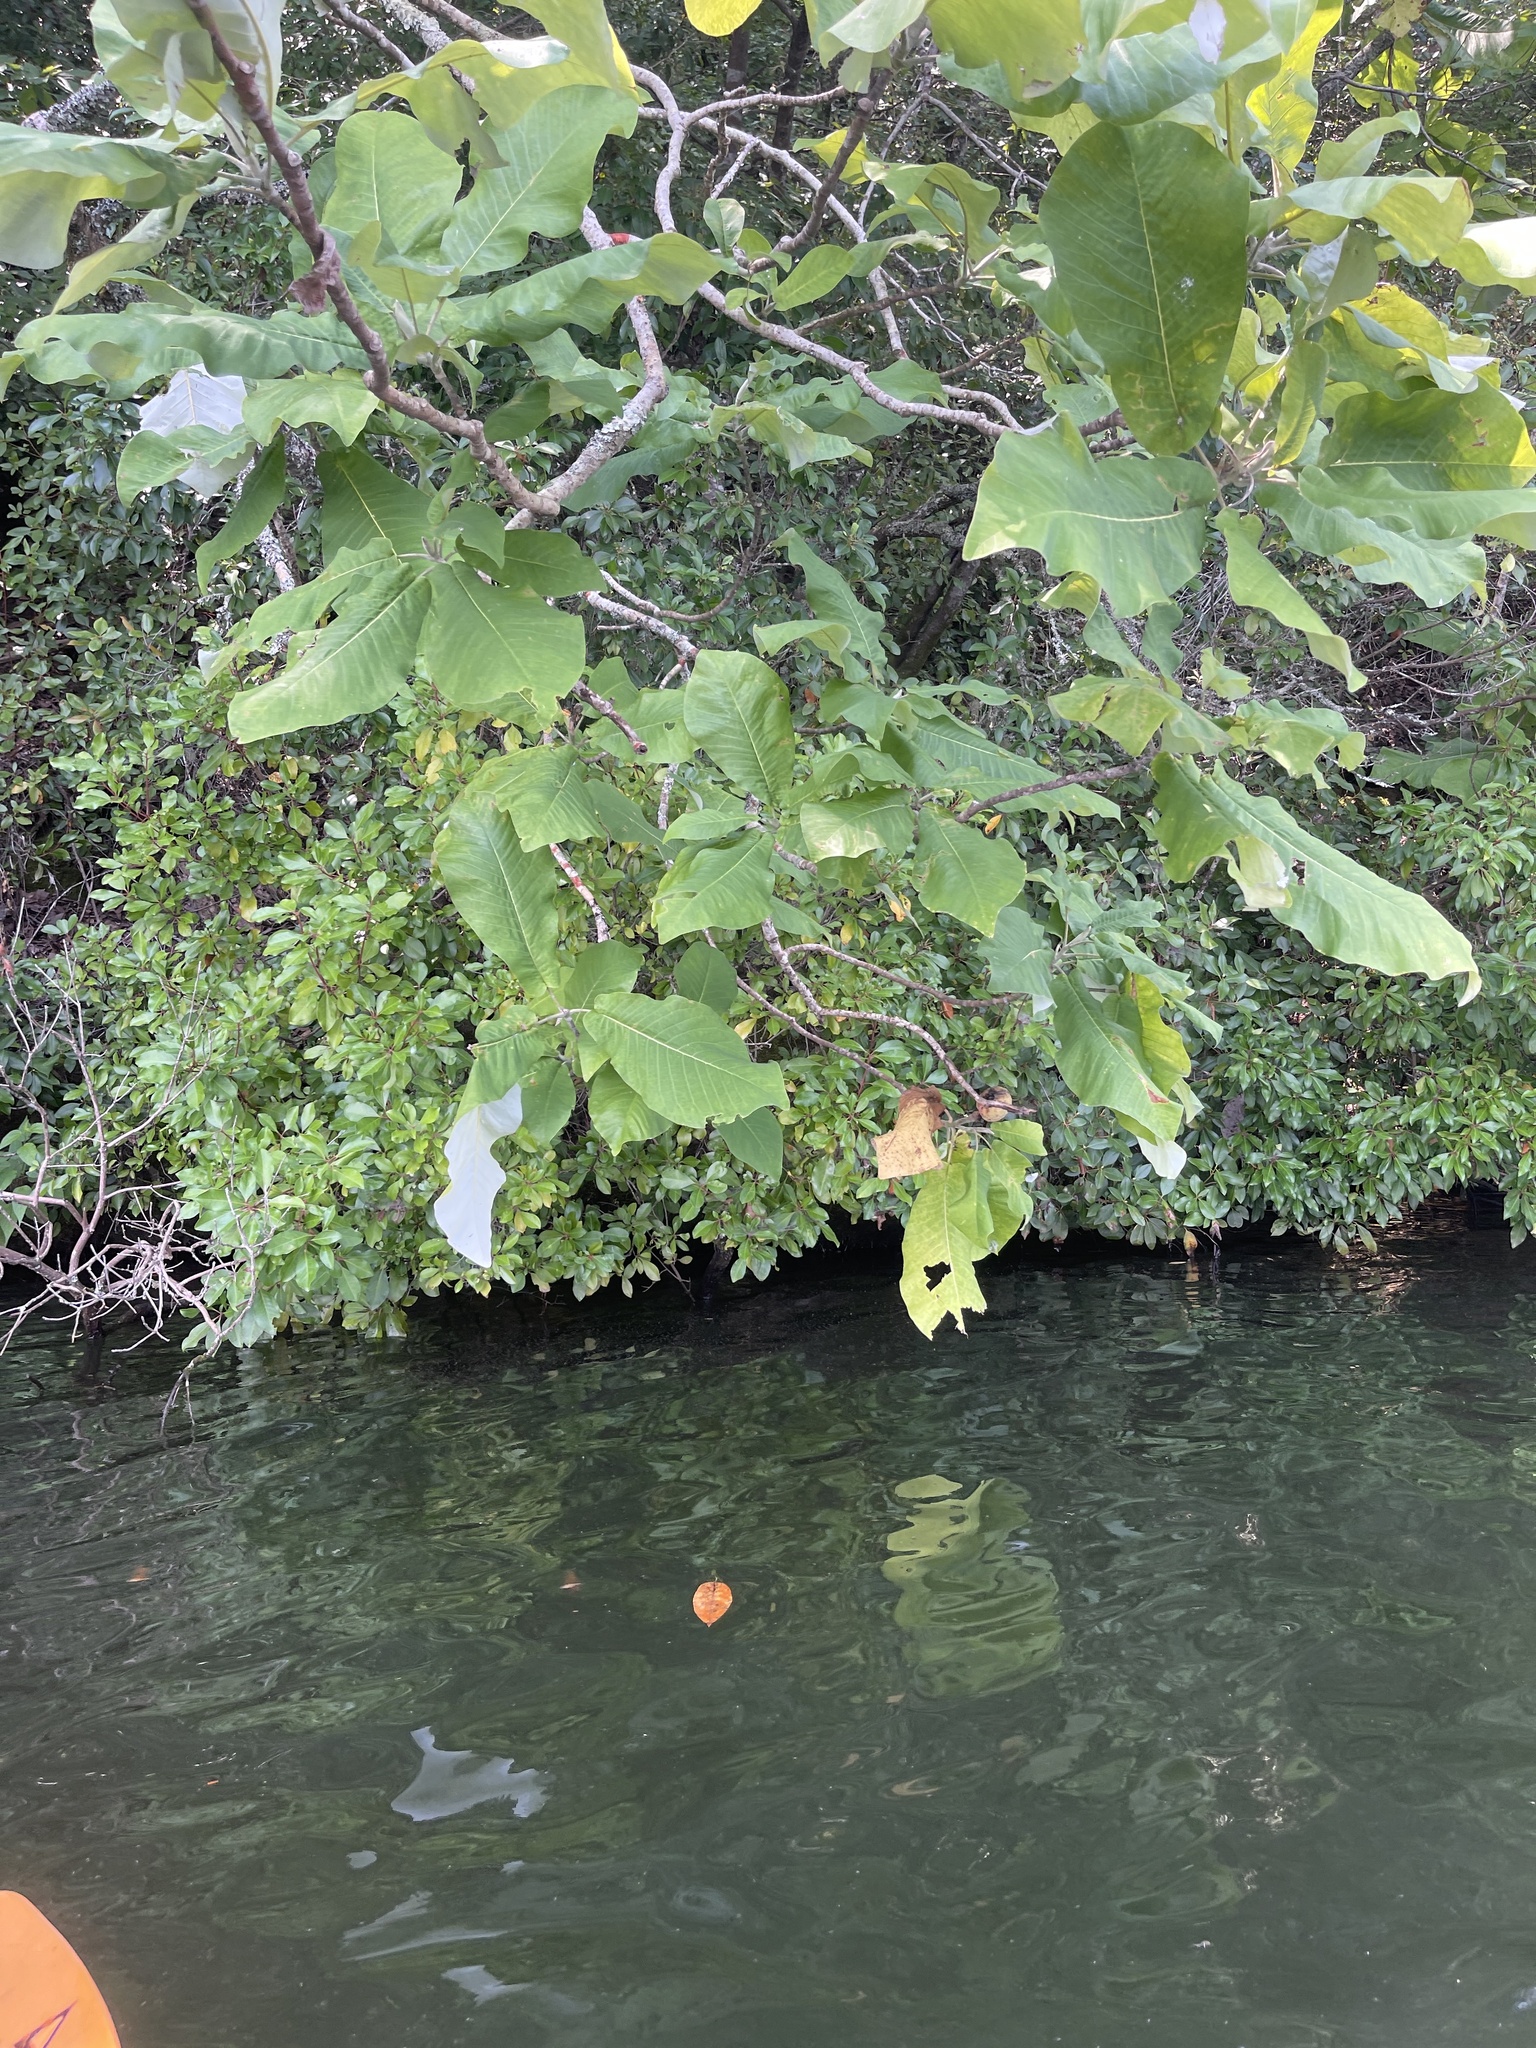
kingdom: Plantae
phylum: Tracheophyta
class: Magnoliopsida
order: Magnoliales
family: Magnoliaceae
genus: Magnolia
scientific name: Magnolia macrophylla
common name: Big-leaf magnolia
